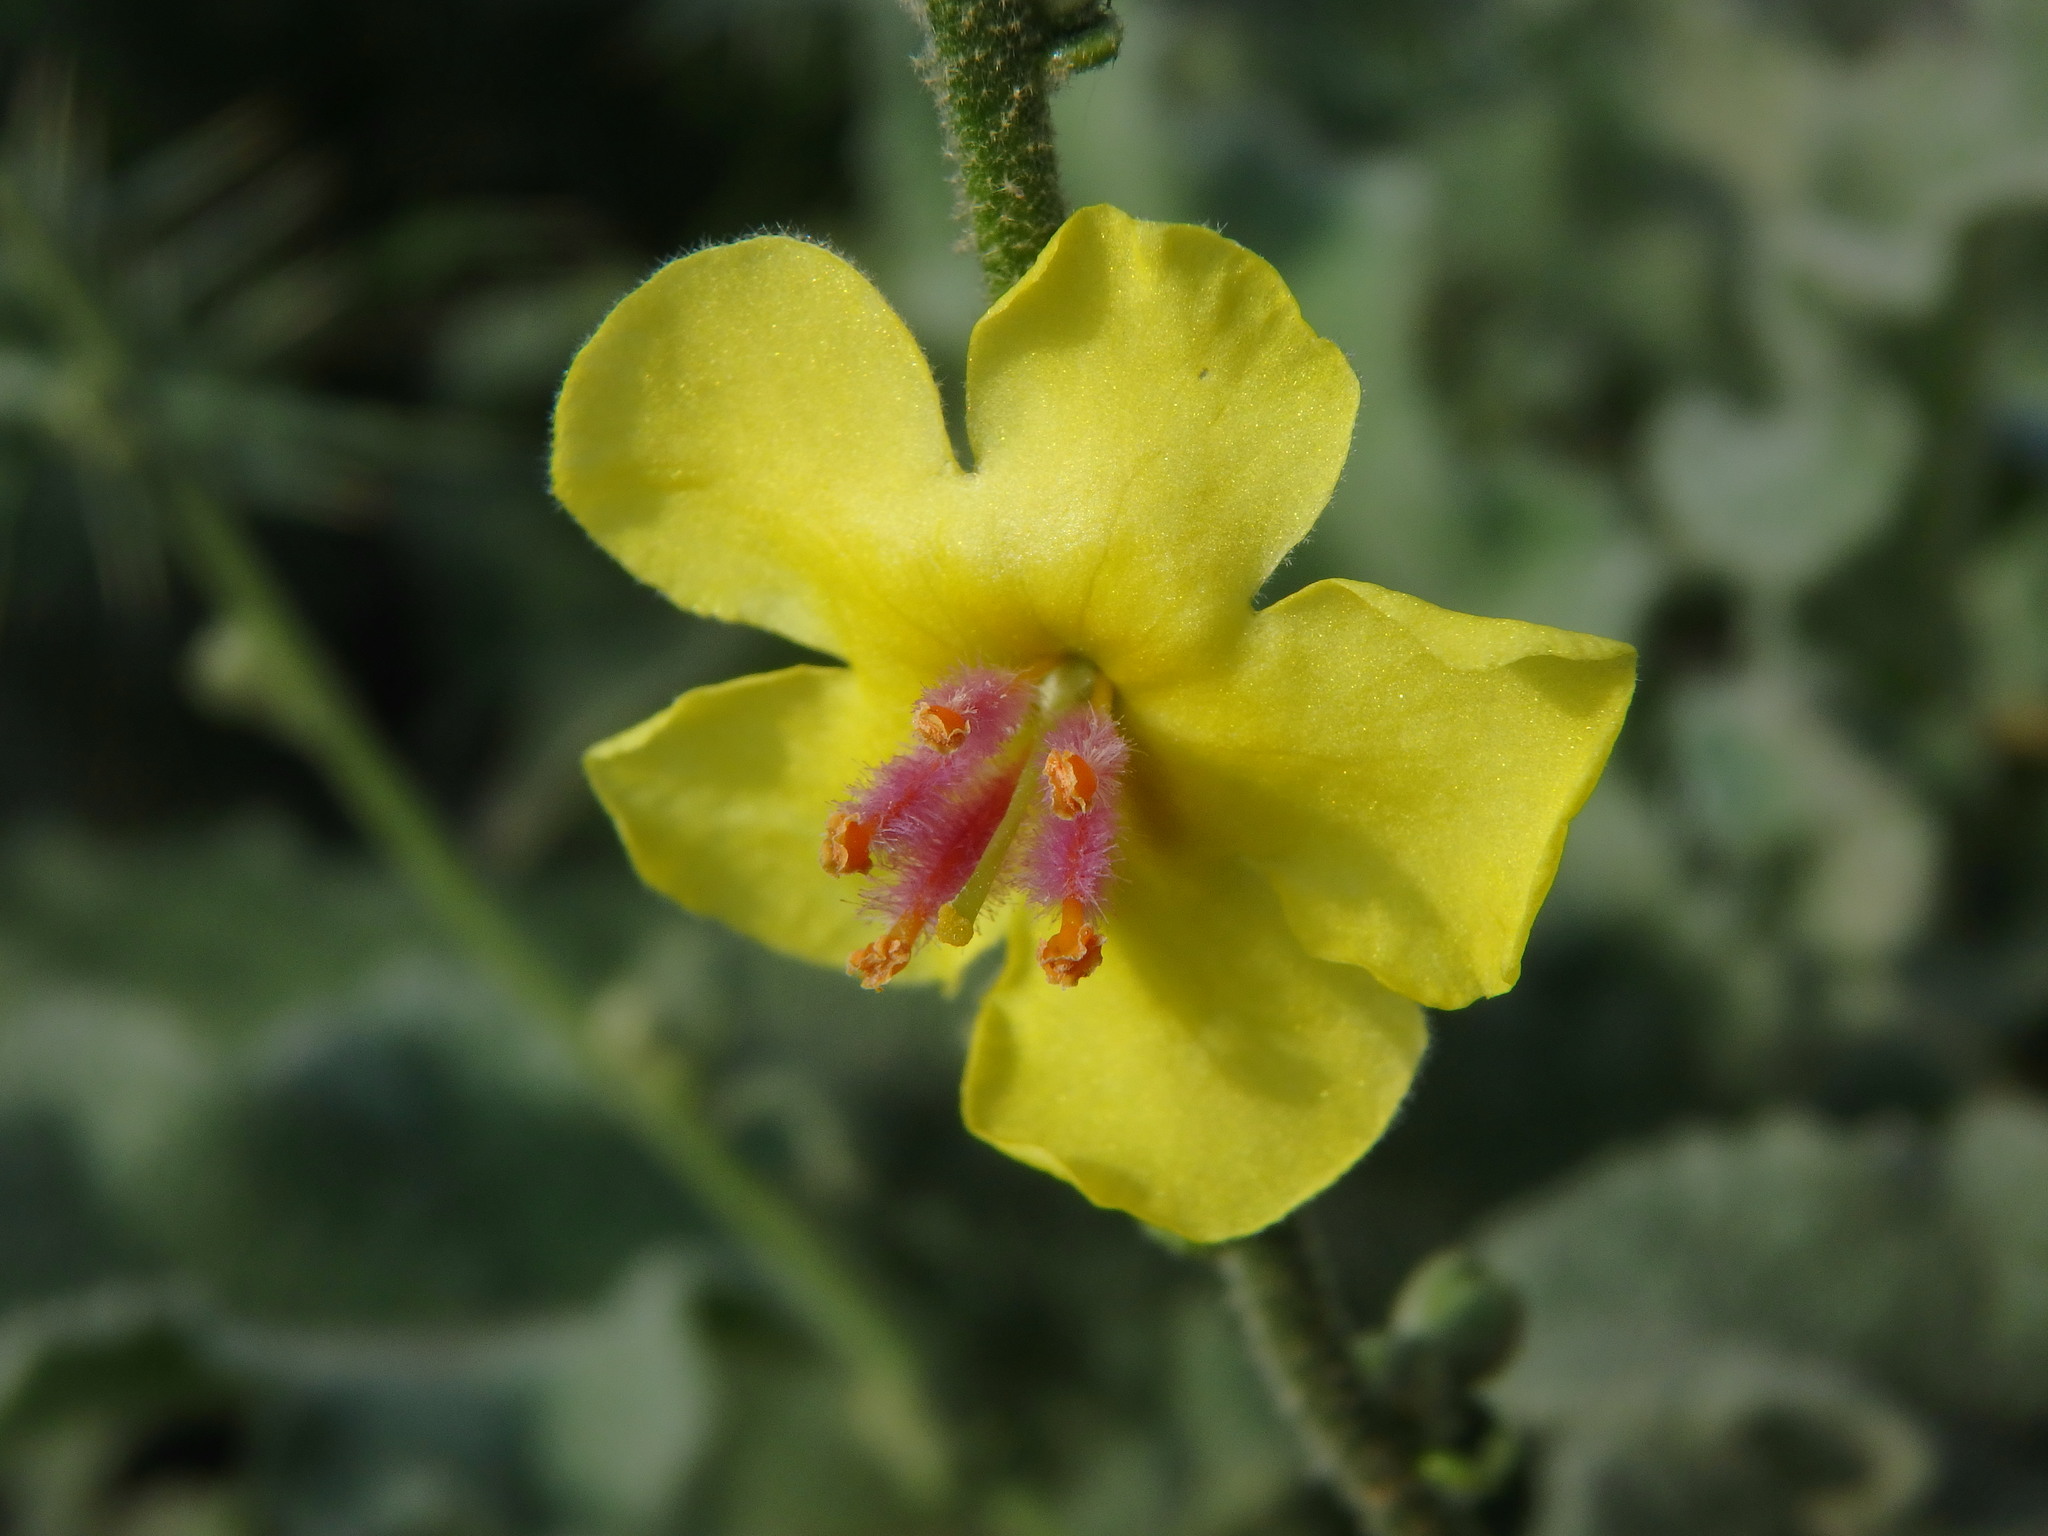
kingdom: Plantae
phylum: Tracheophyta
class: Magnoliopsida
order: Lamiales
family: Scrophulariaceae
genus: Verbascum
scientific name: Verbascum sinuatum
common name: Wavyleaf mullein
